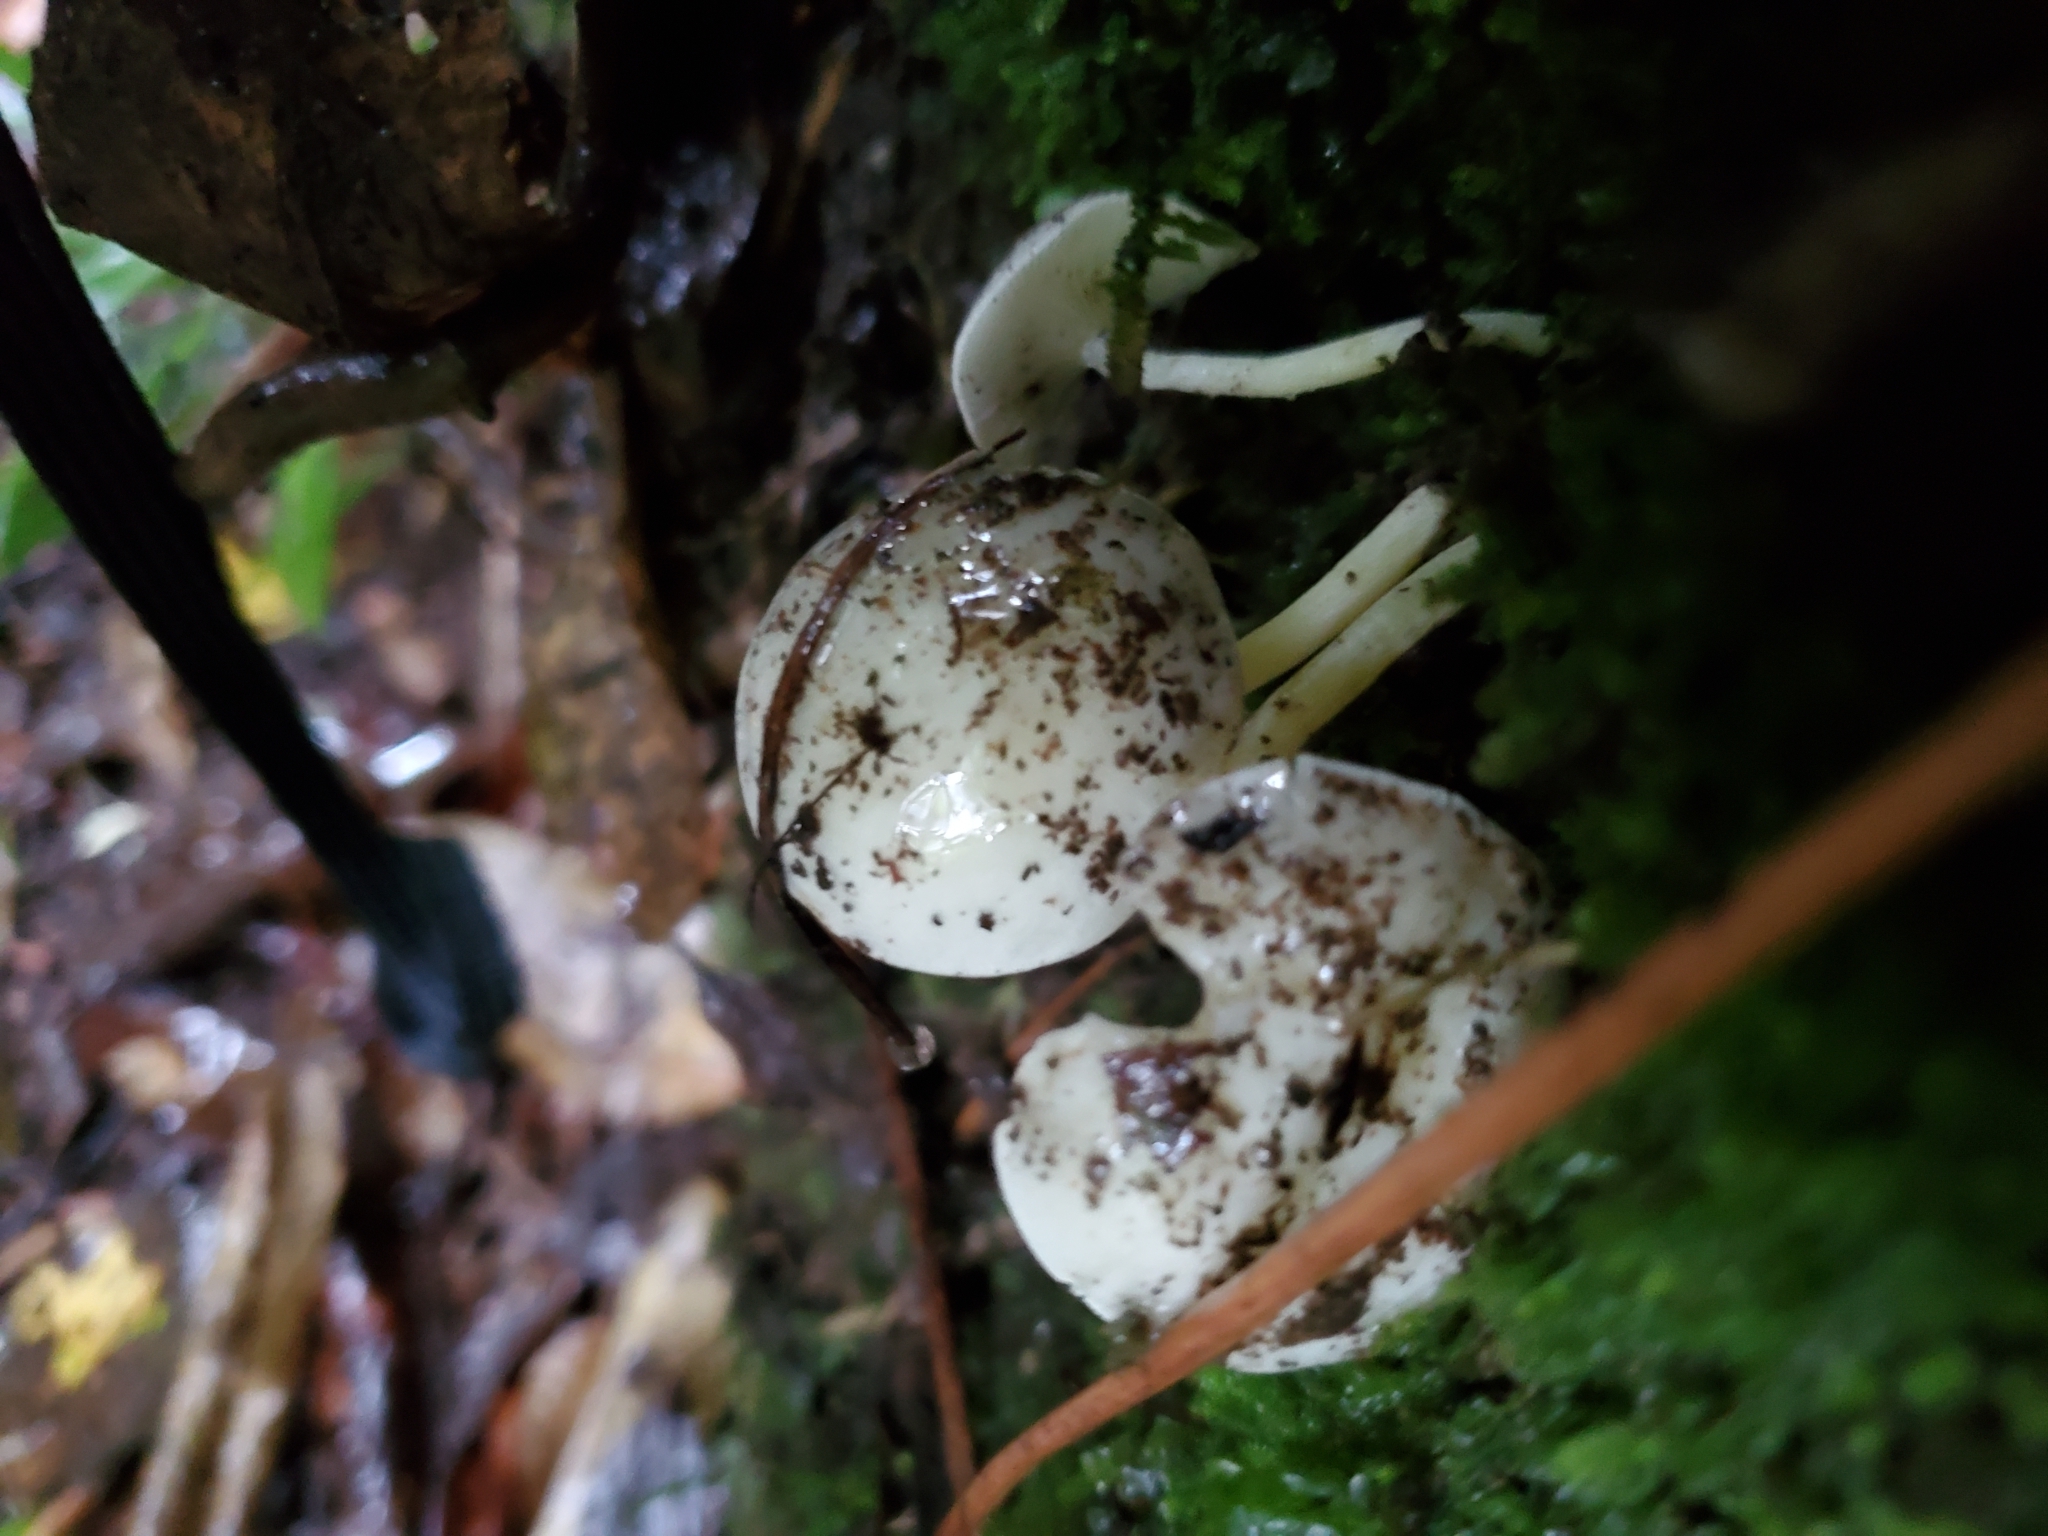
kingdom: Fungi
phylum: Basidiomycota
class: Agaricomycetes
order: Agaricales
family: Hygrophoraceae
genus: Hygrophorus
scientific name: Hygrophorus involutus
